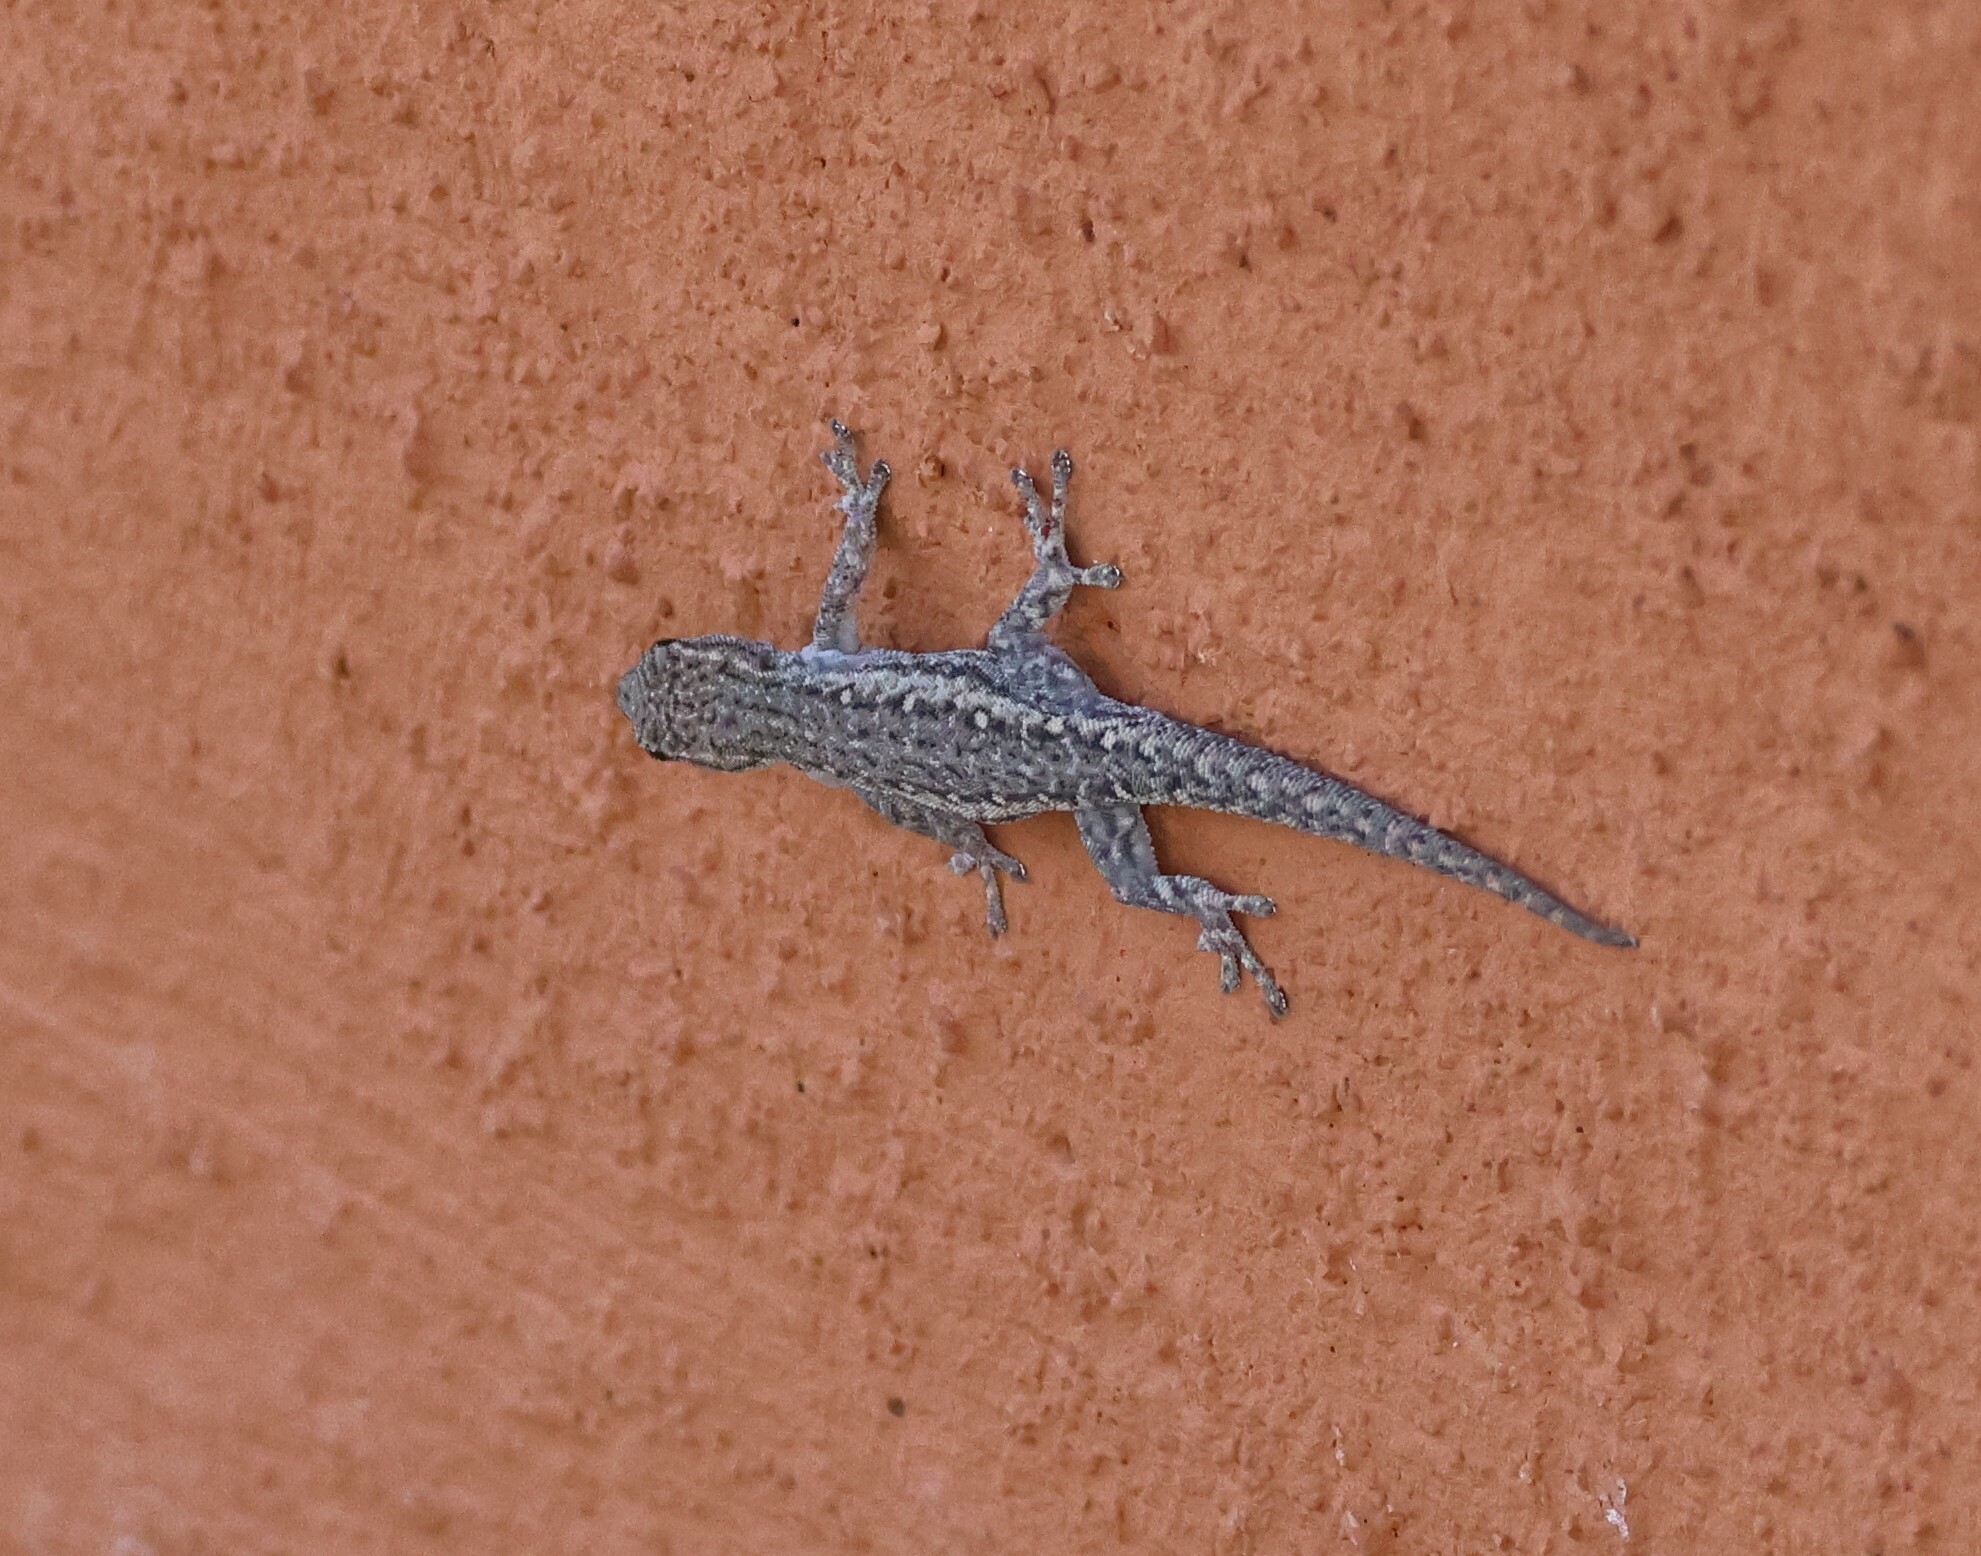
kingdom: Animalia
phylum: Chordata
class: Squamata
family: Gekkonidae
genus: Lygodactylus
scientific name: Lygodactylus capensis
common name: Cape dwarf gecko
